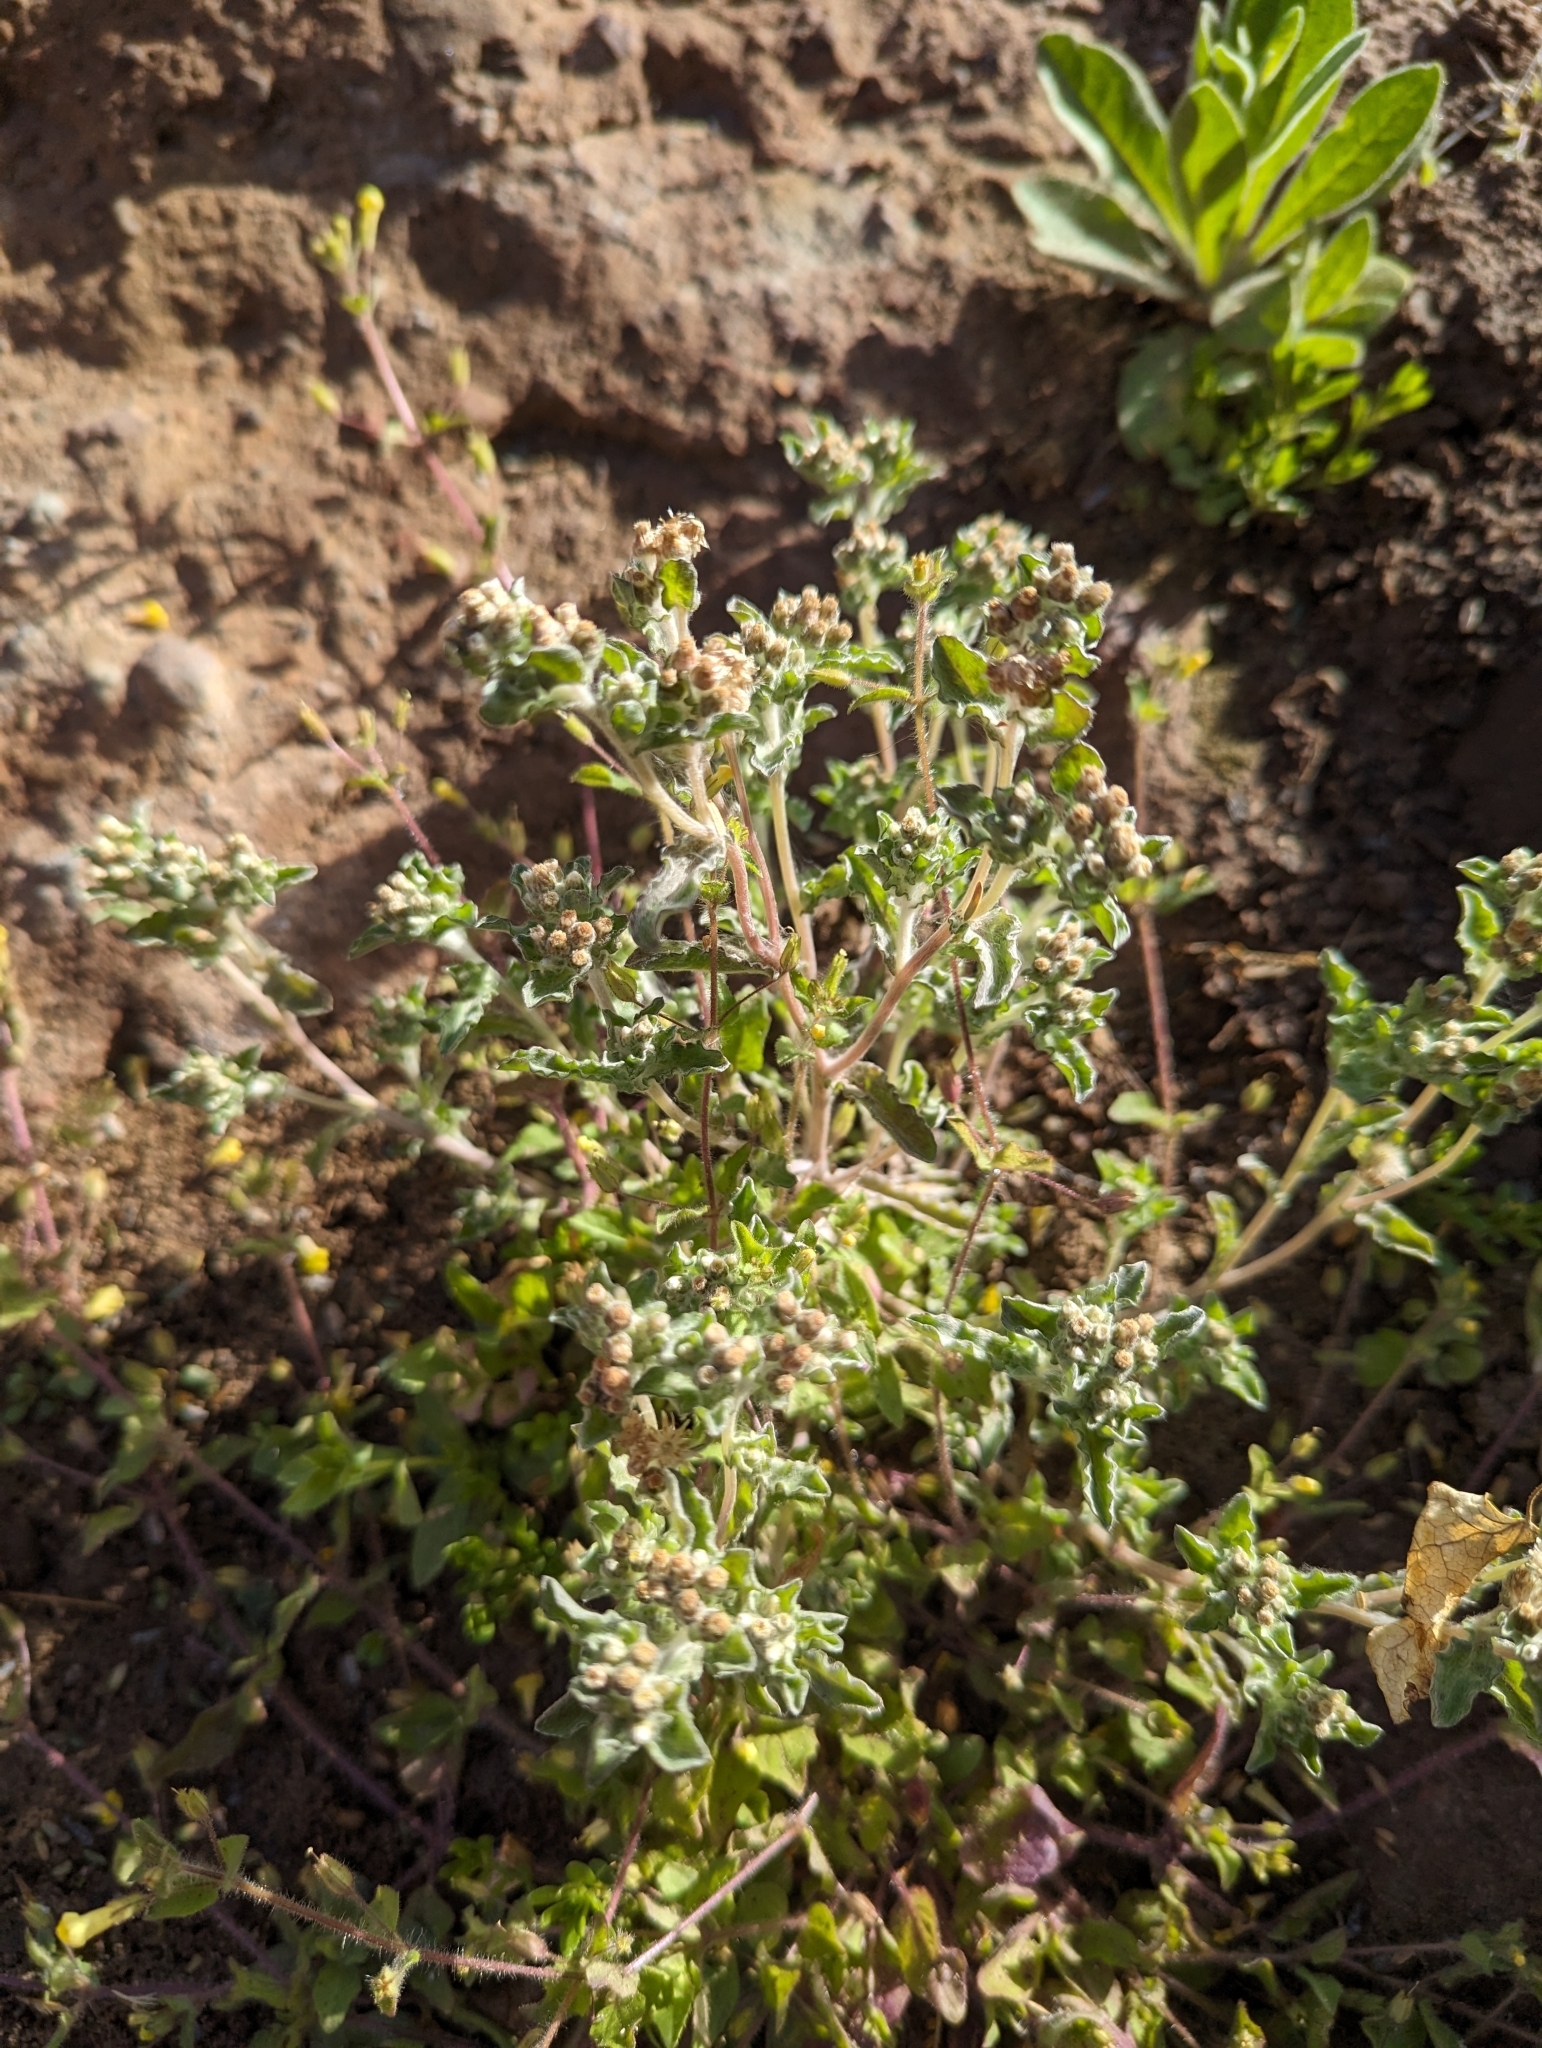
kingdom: Plantae
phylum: Tracheophyta
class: Magnoliopsida
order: Asterales
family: Asteraceae
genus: Gnaphalium
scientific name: Gnaphalium palustre
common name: Western marsh cudweed
